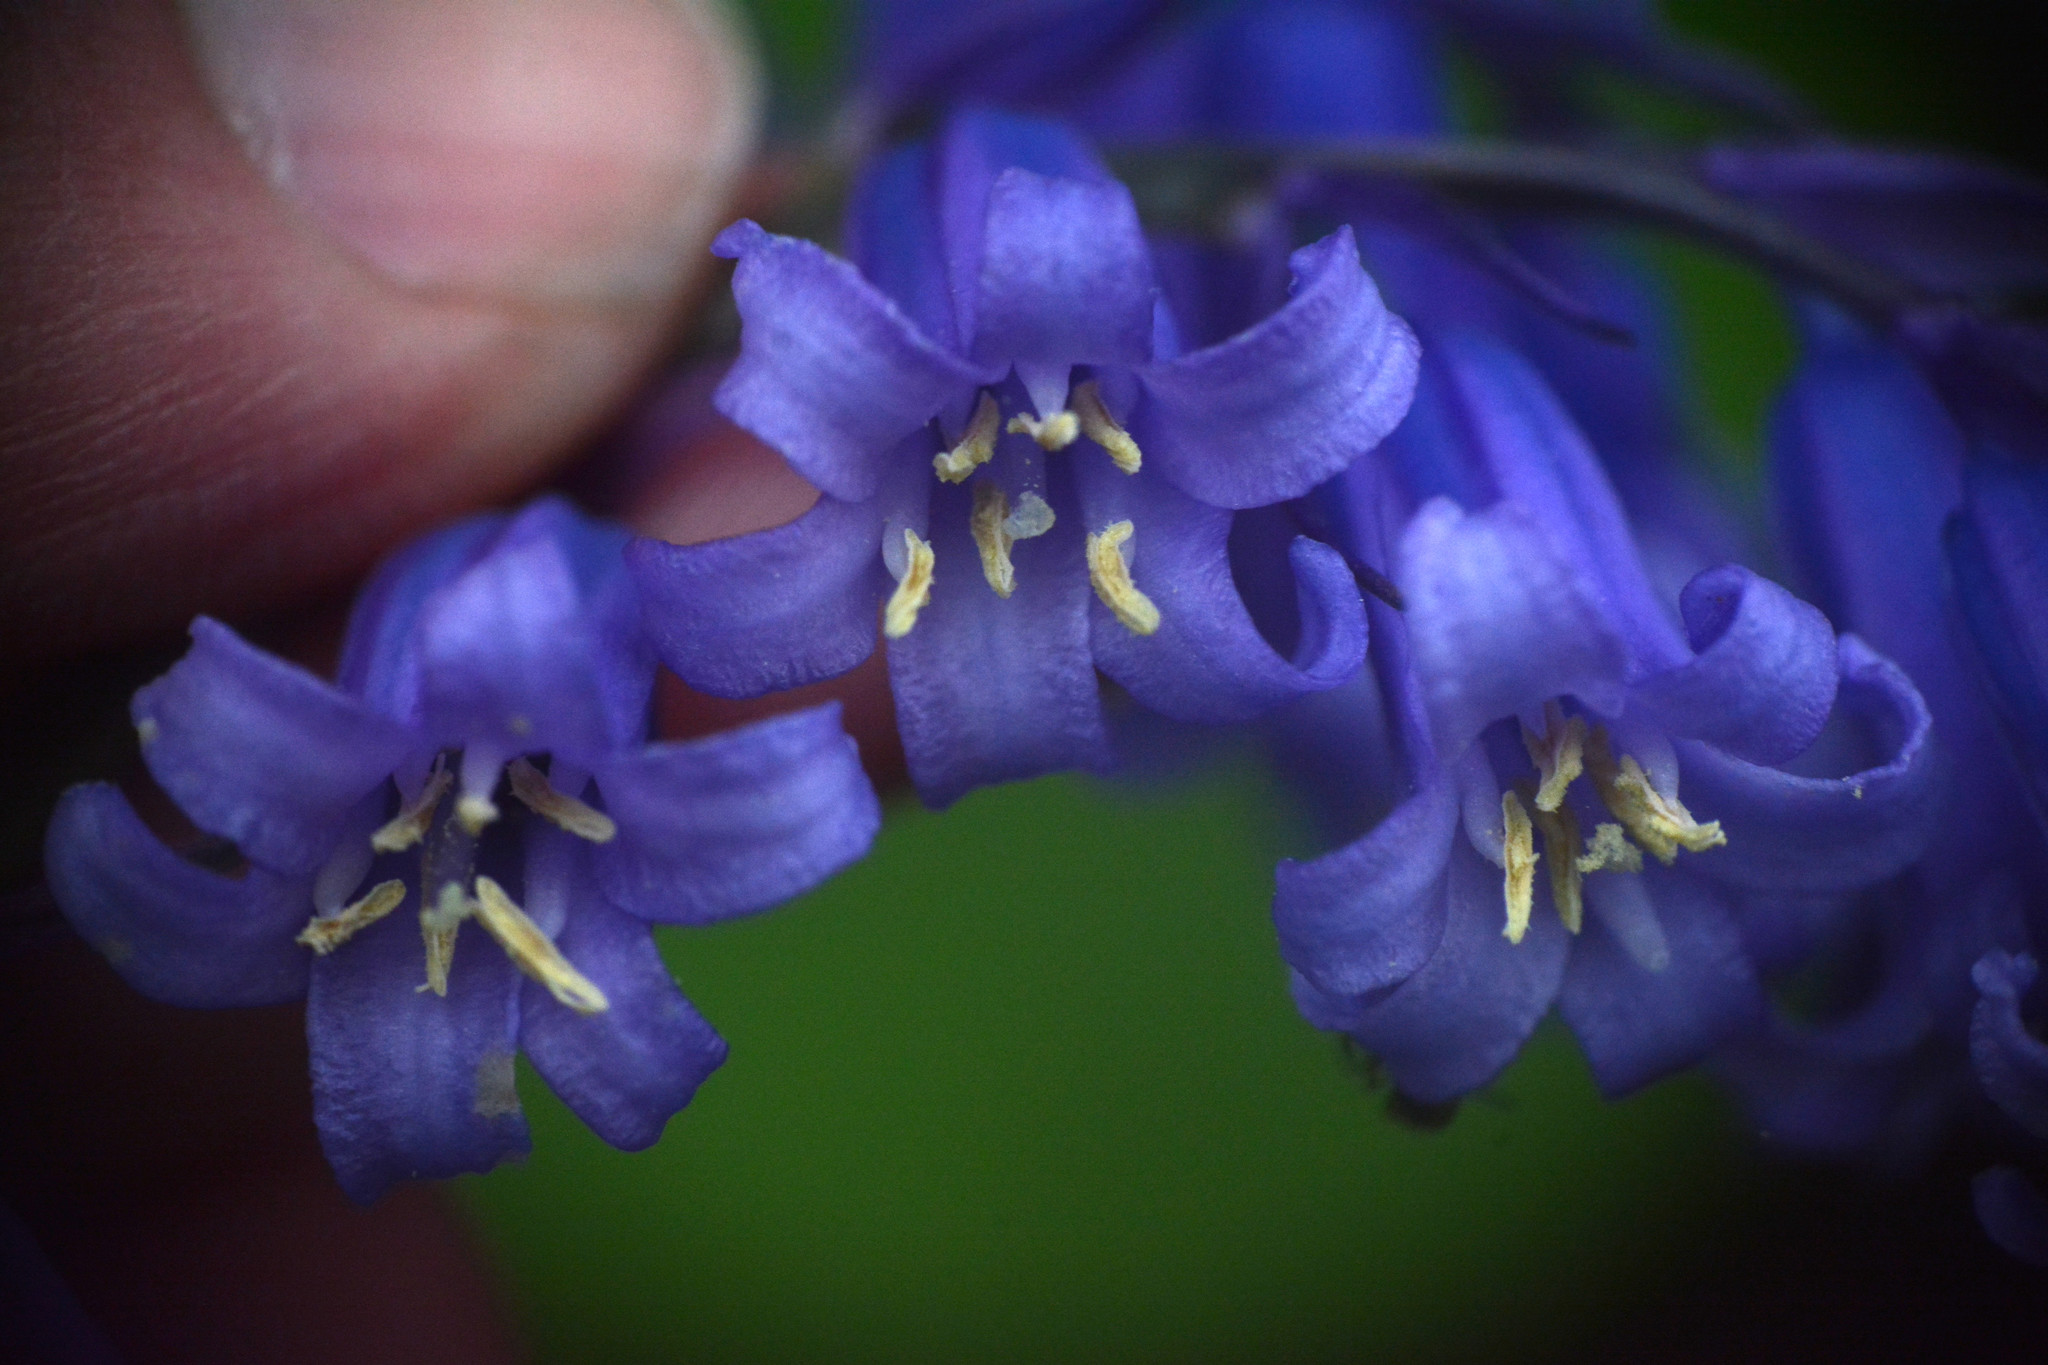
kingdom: Plantae
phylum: Tracheophyta
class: Liliopsida
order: Asparagales
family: Asparagaceae
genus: Hyacinthoides
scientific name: Hyacinthoides non-scripta
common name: Bluebell
